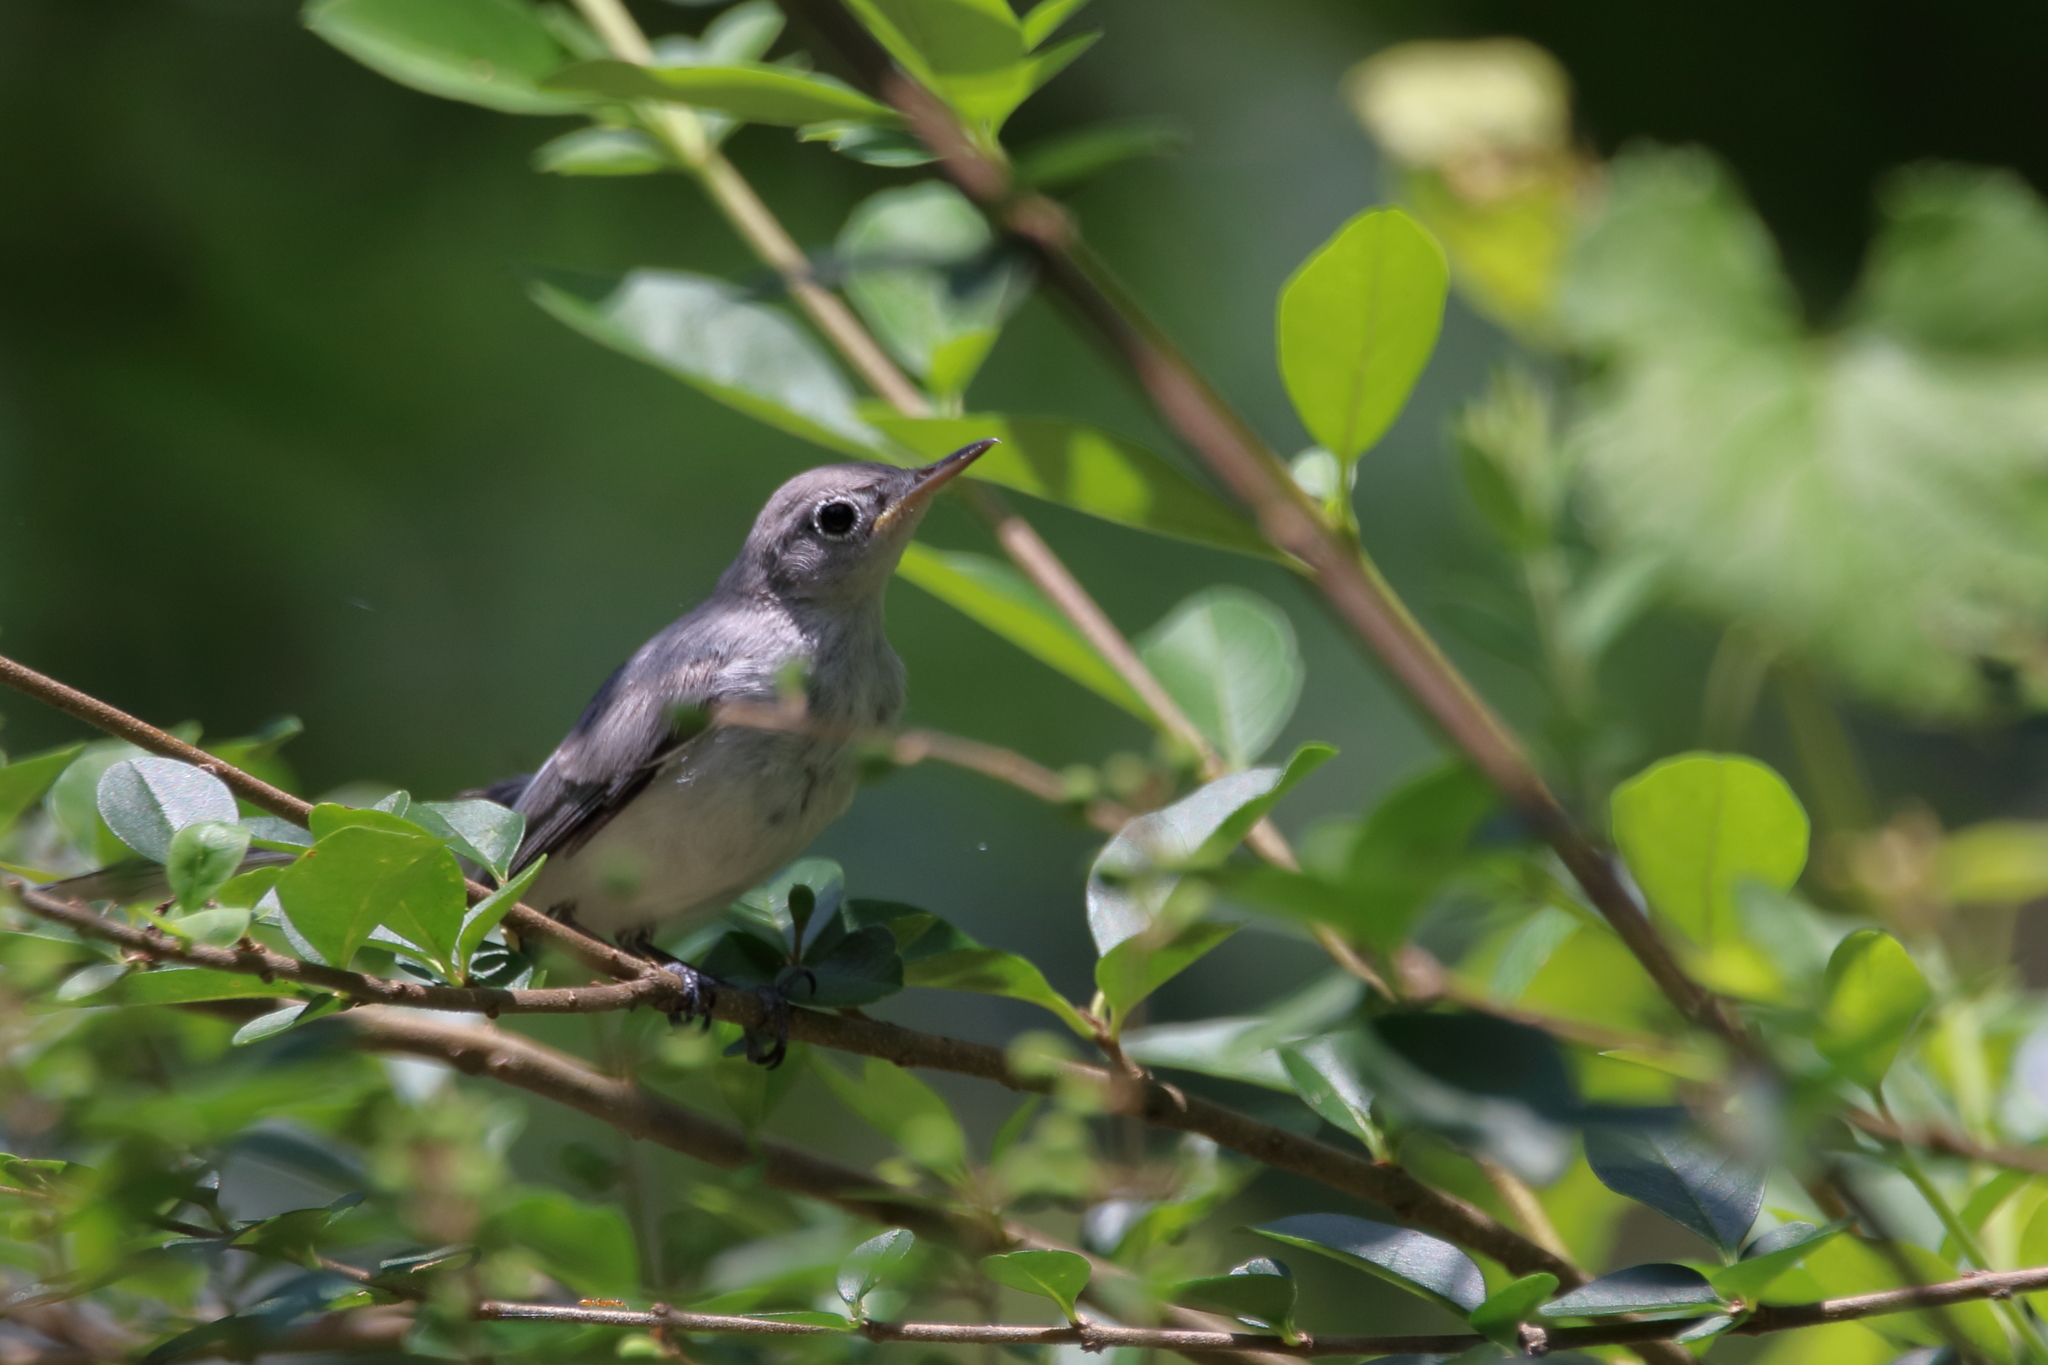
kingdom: Animalia
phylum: Chordata
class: Aves
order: Passeriformes
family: Polioptilidae
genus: Polioptila
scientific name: Polioptila caerulea
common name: Blue-gray gnatcatcher
